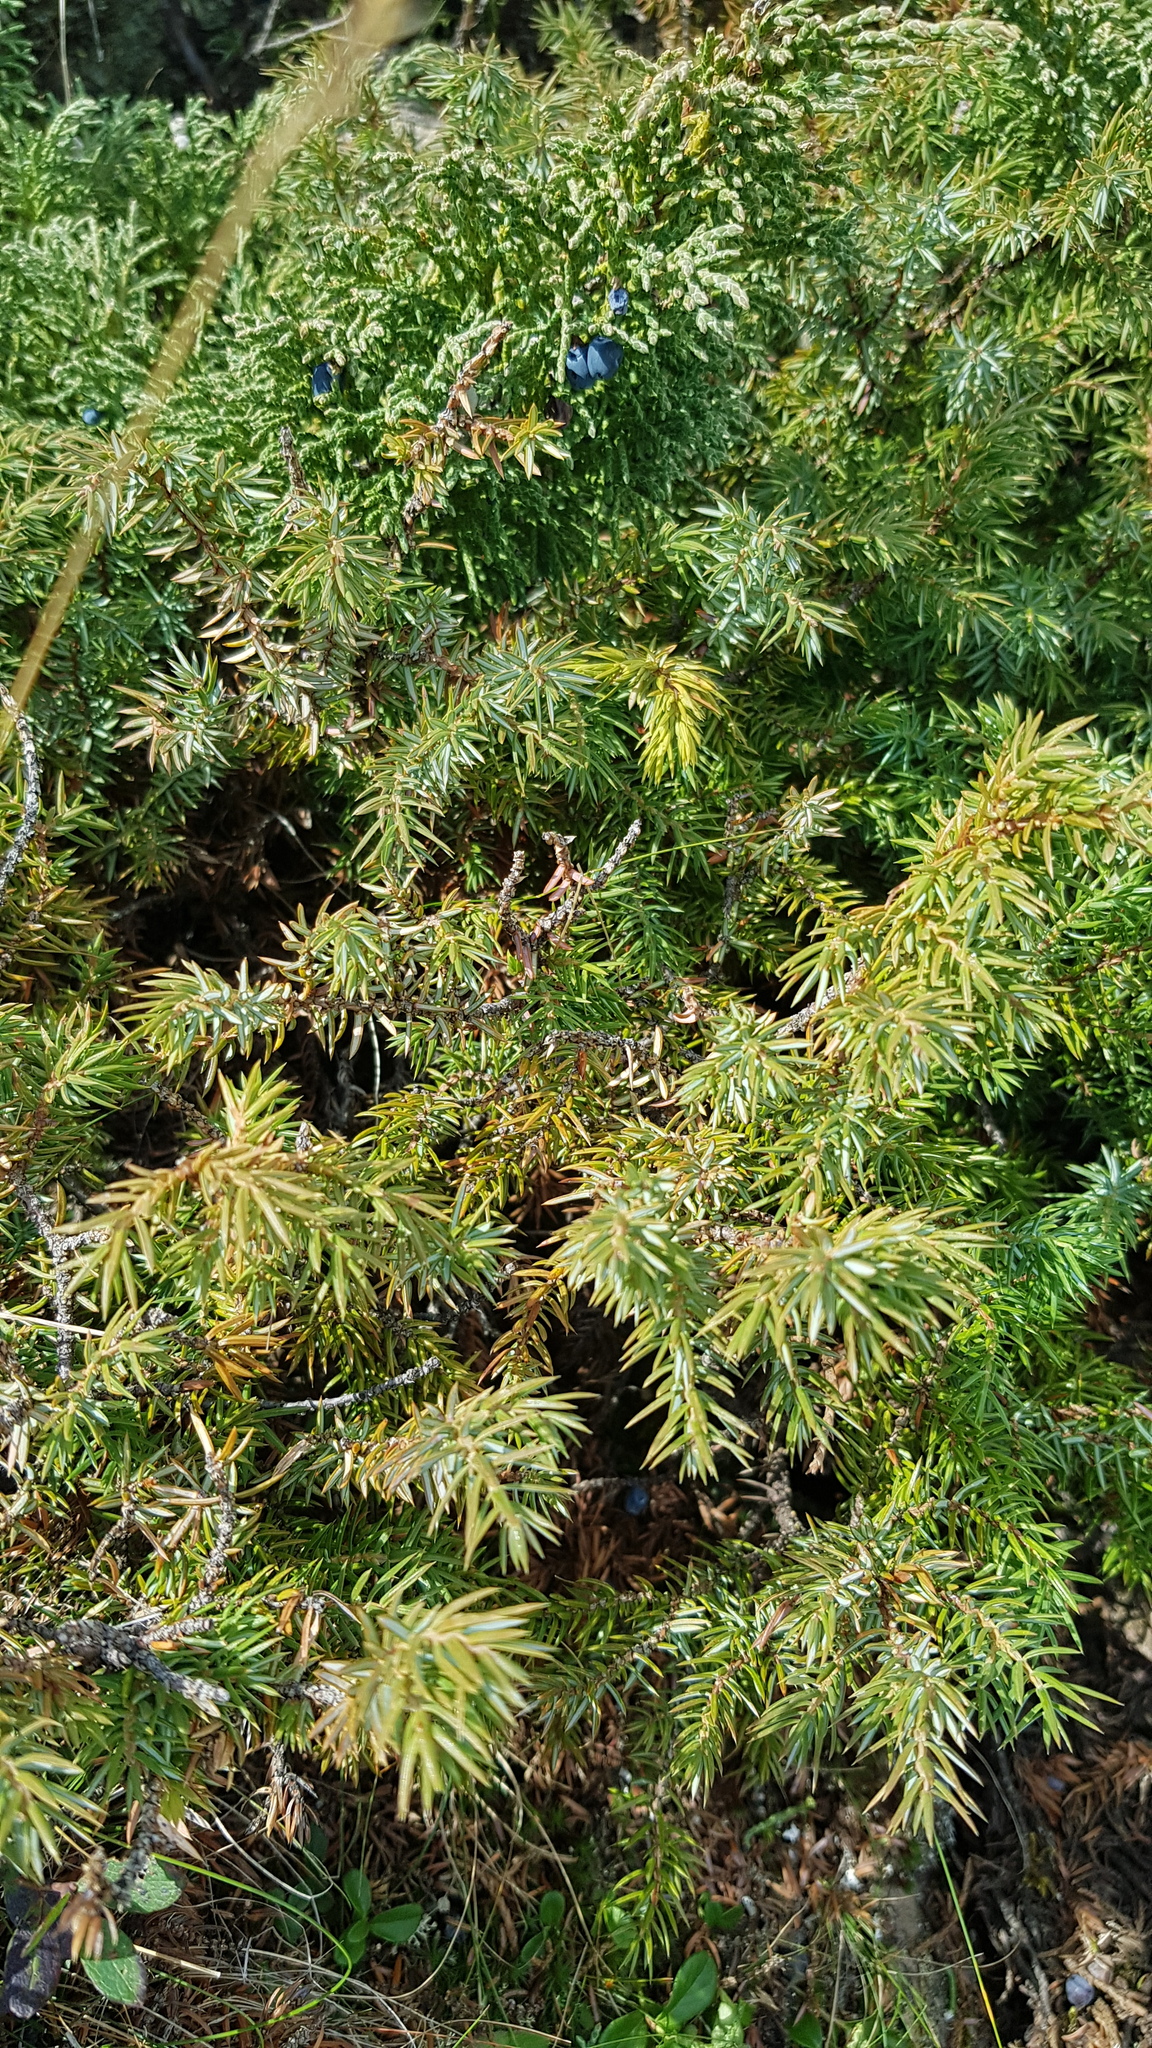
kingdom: Plantae
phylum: Tracheophyta
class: Pinopsida
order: Pinales
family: Cupressaceae
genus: Juniperus
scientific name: Juniperus communis
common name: Common juniper
